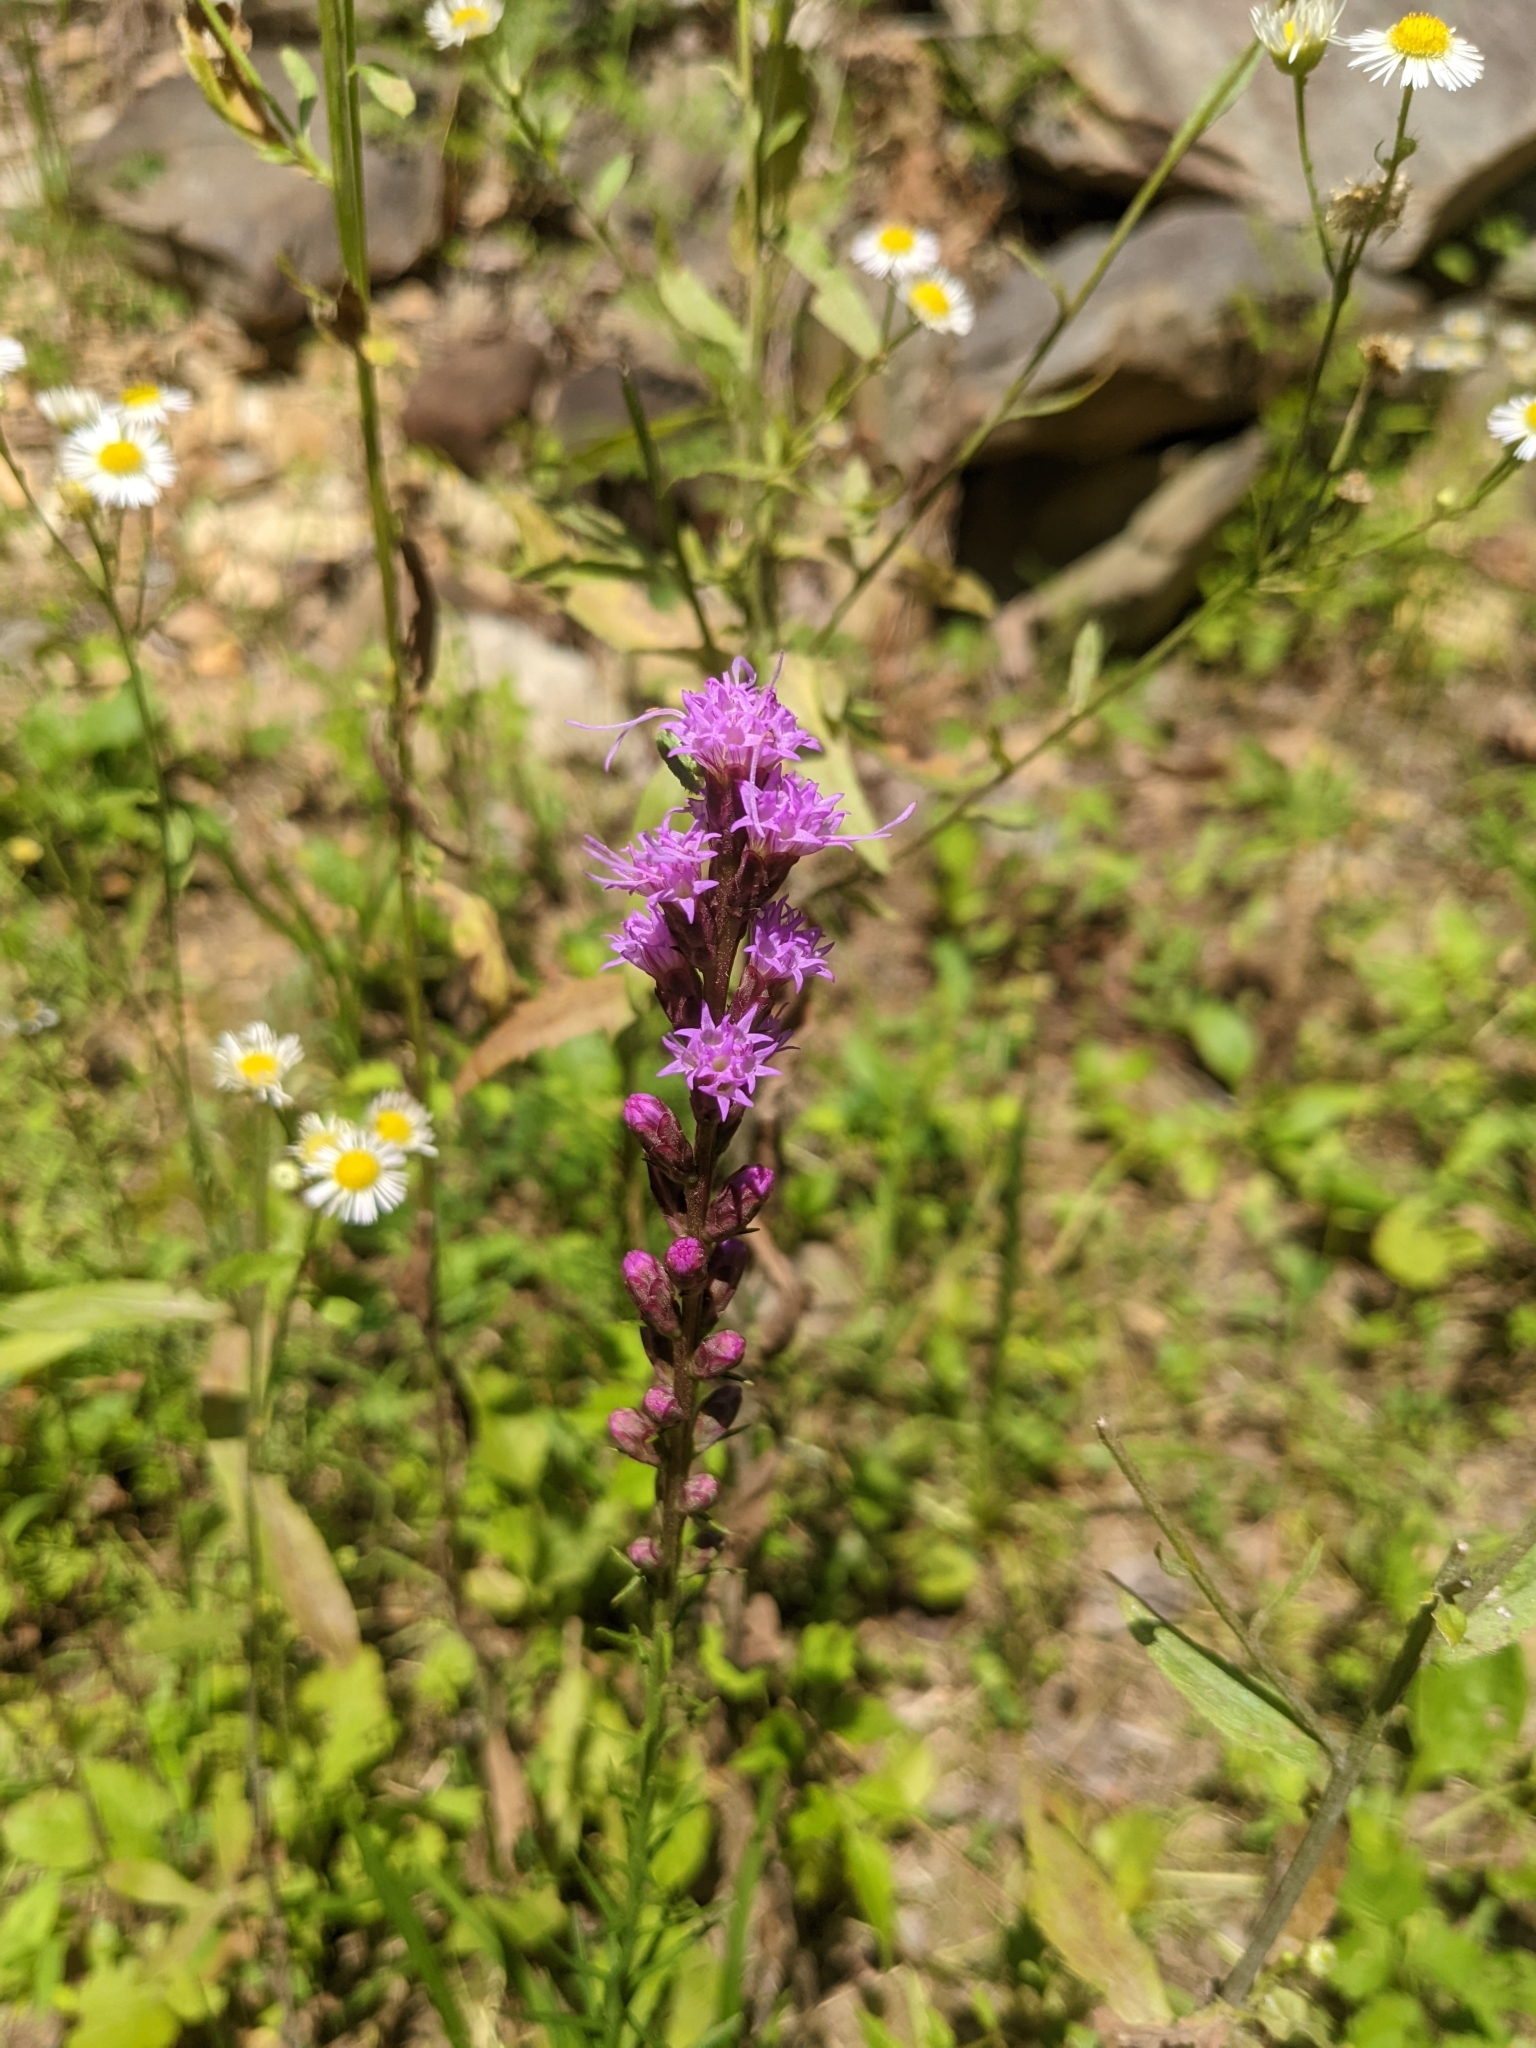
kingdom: Plantae
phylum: Tracheophyta
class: Magnoliopsida
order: Asterales
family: Asteraceae
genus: Liatris
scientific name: Liatris pilosa
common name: Grass-leaf gayfeather
